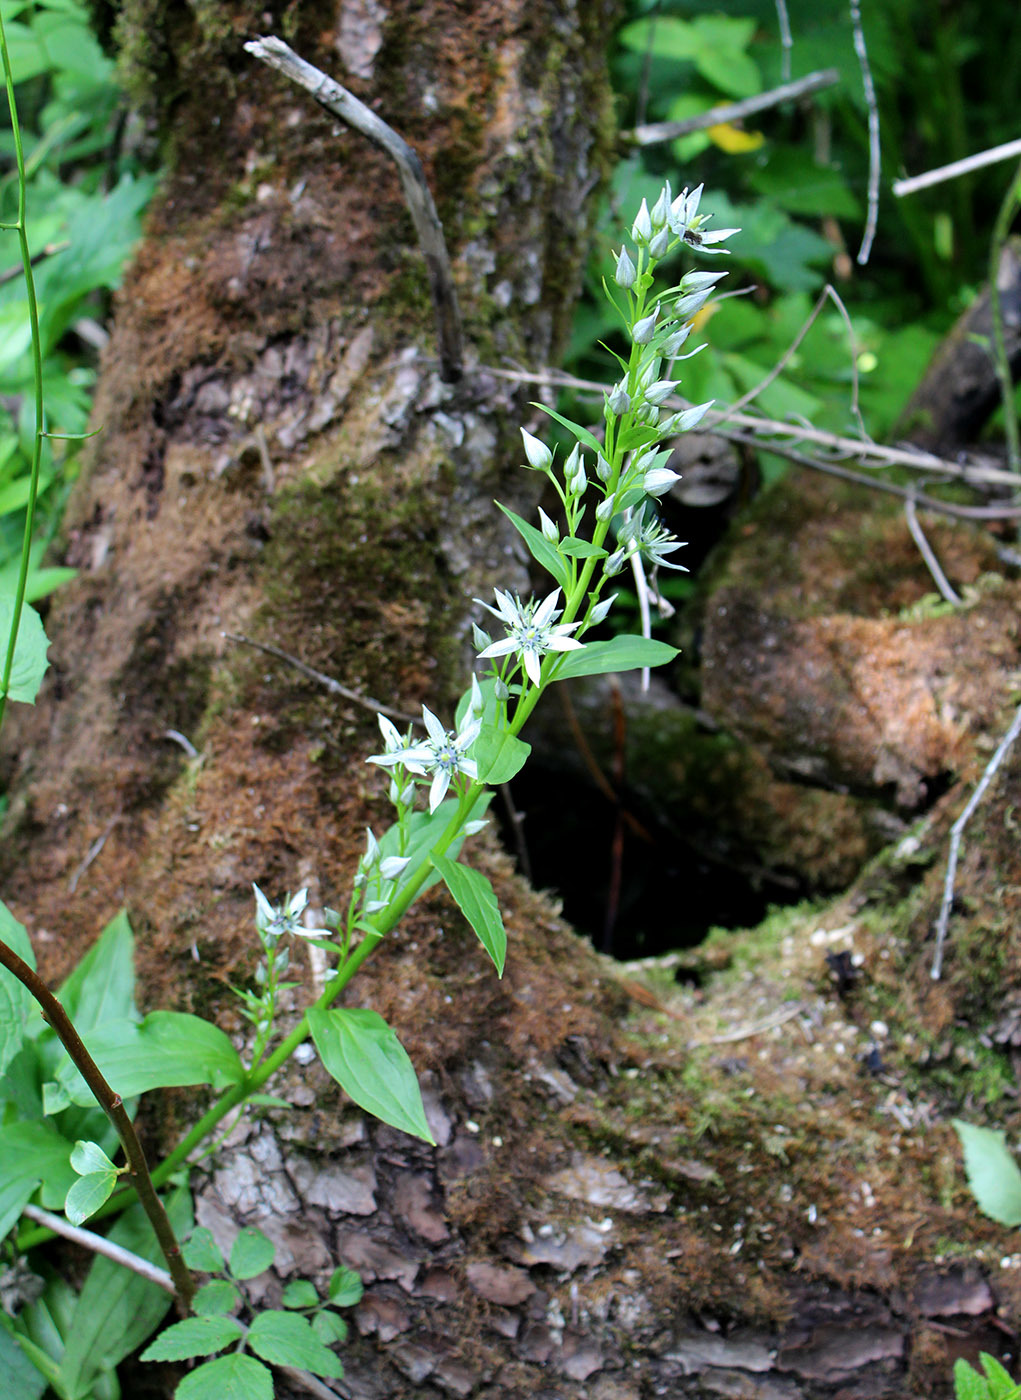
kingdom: Plantae
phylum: Tracheophyta
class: Magnoliopsida
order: Gentianales
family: Gentianaceae
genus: Swertia
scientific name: Swertia iberica
